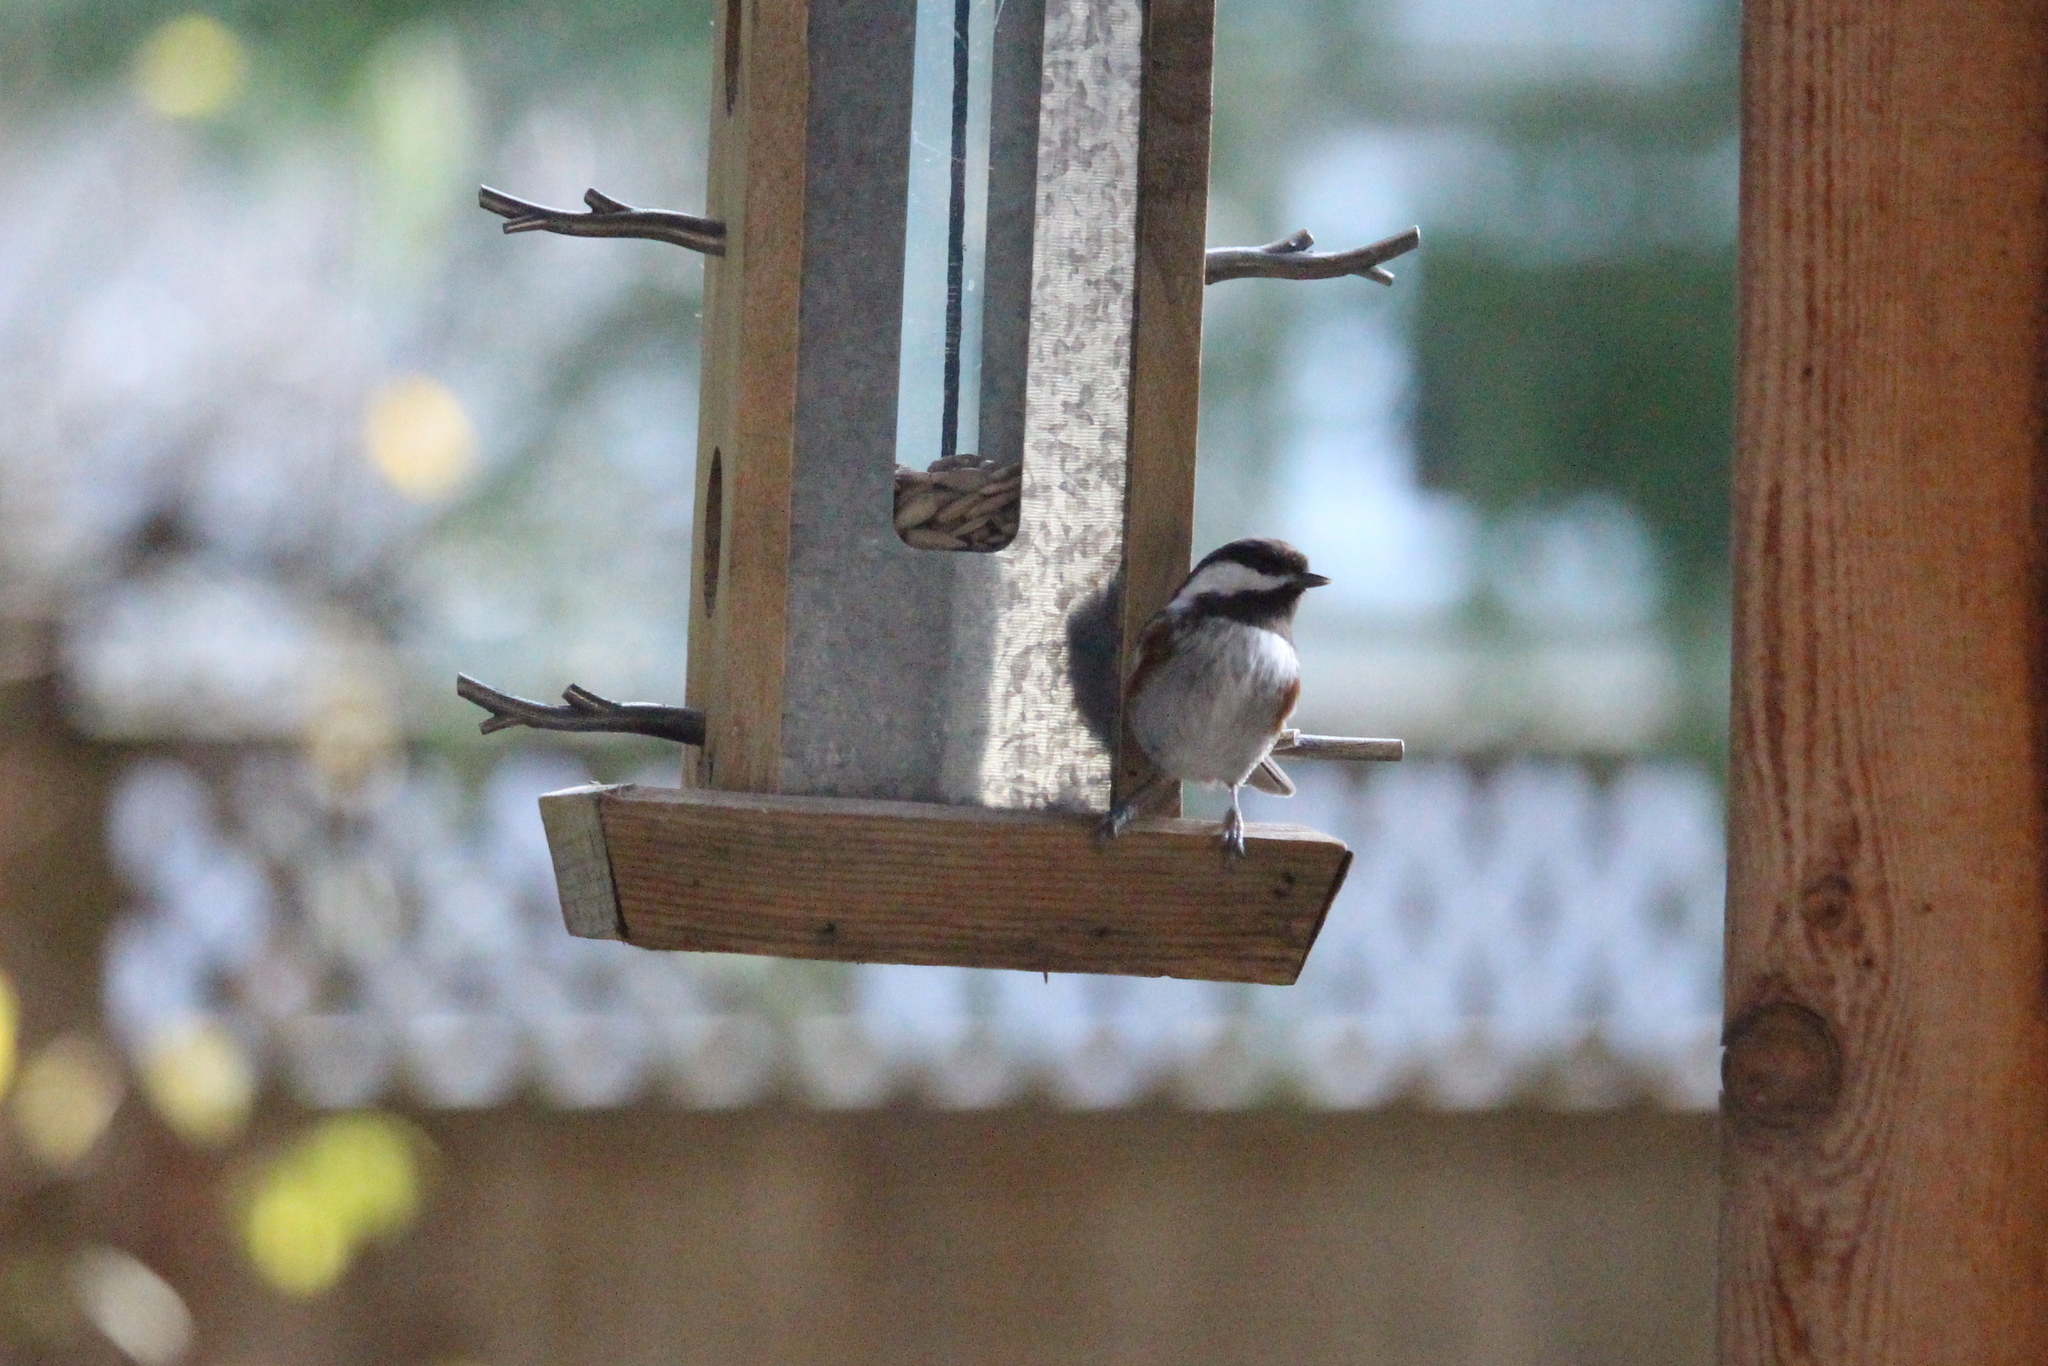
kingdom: Animalia
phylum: Chordata
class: Aves
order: Passeriformes
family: Paridae
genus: Poecile
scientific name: Poecile rufescens
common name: Chestnut-backed chickadee
